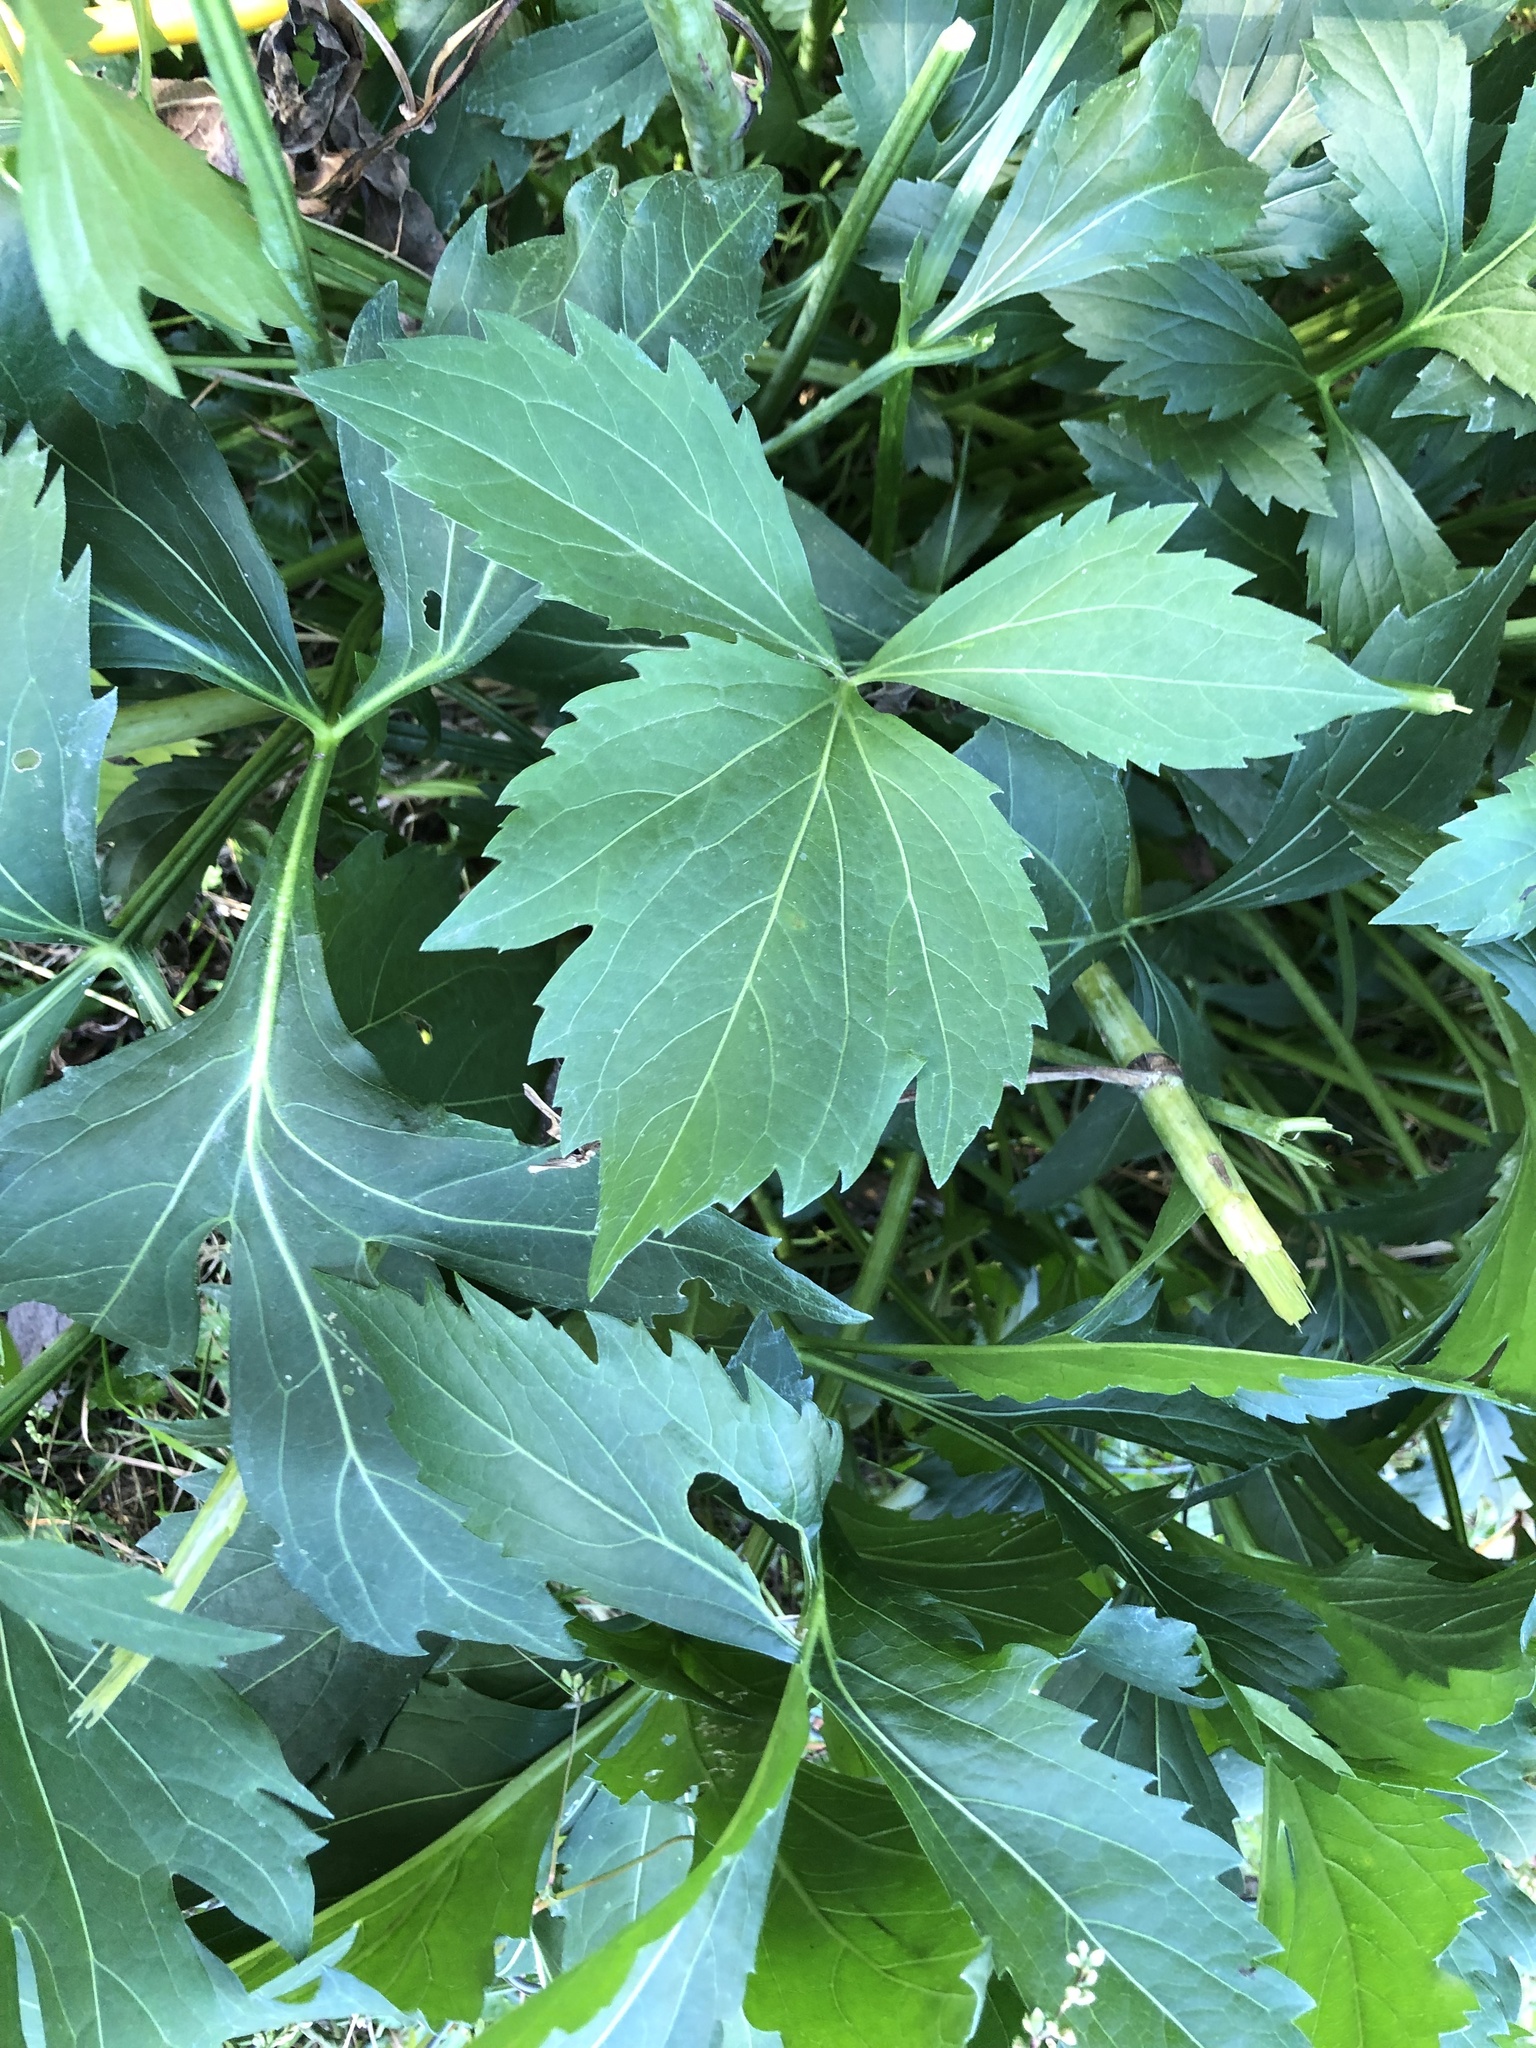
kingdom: Plantae
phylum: Tracheophyta
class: Magnoliopsida
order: Asterales
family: Asteraceae
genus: Rudbeckia
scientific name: Rudbeckia laciniata
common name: Coneflower
